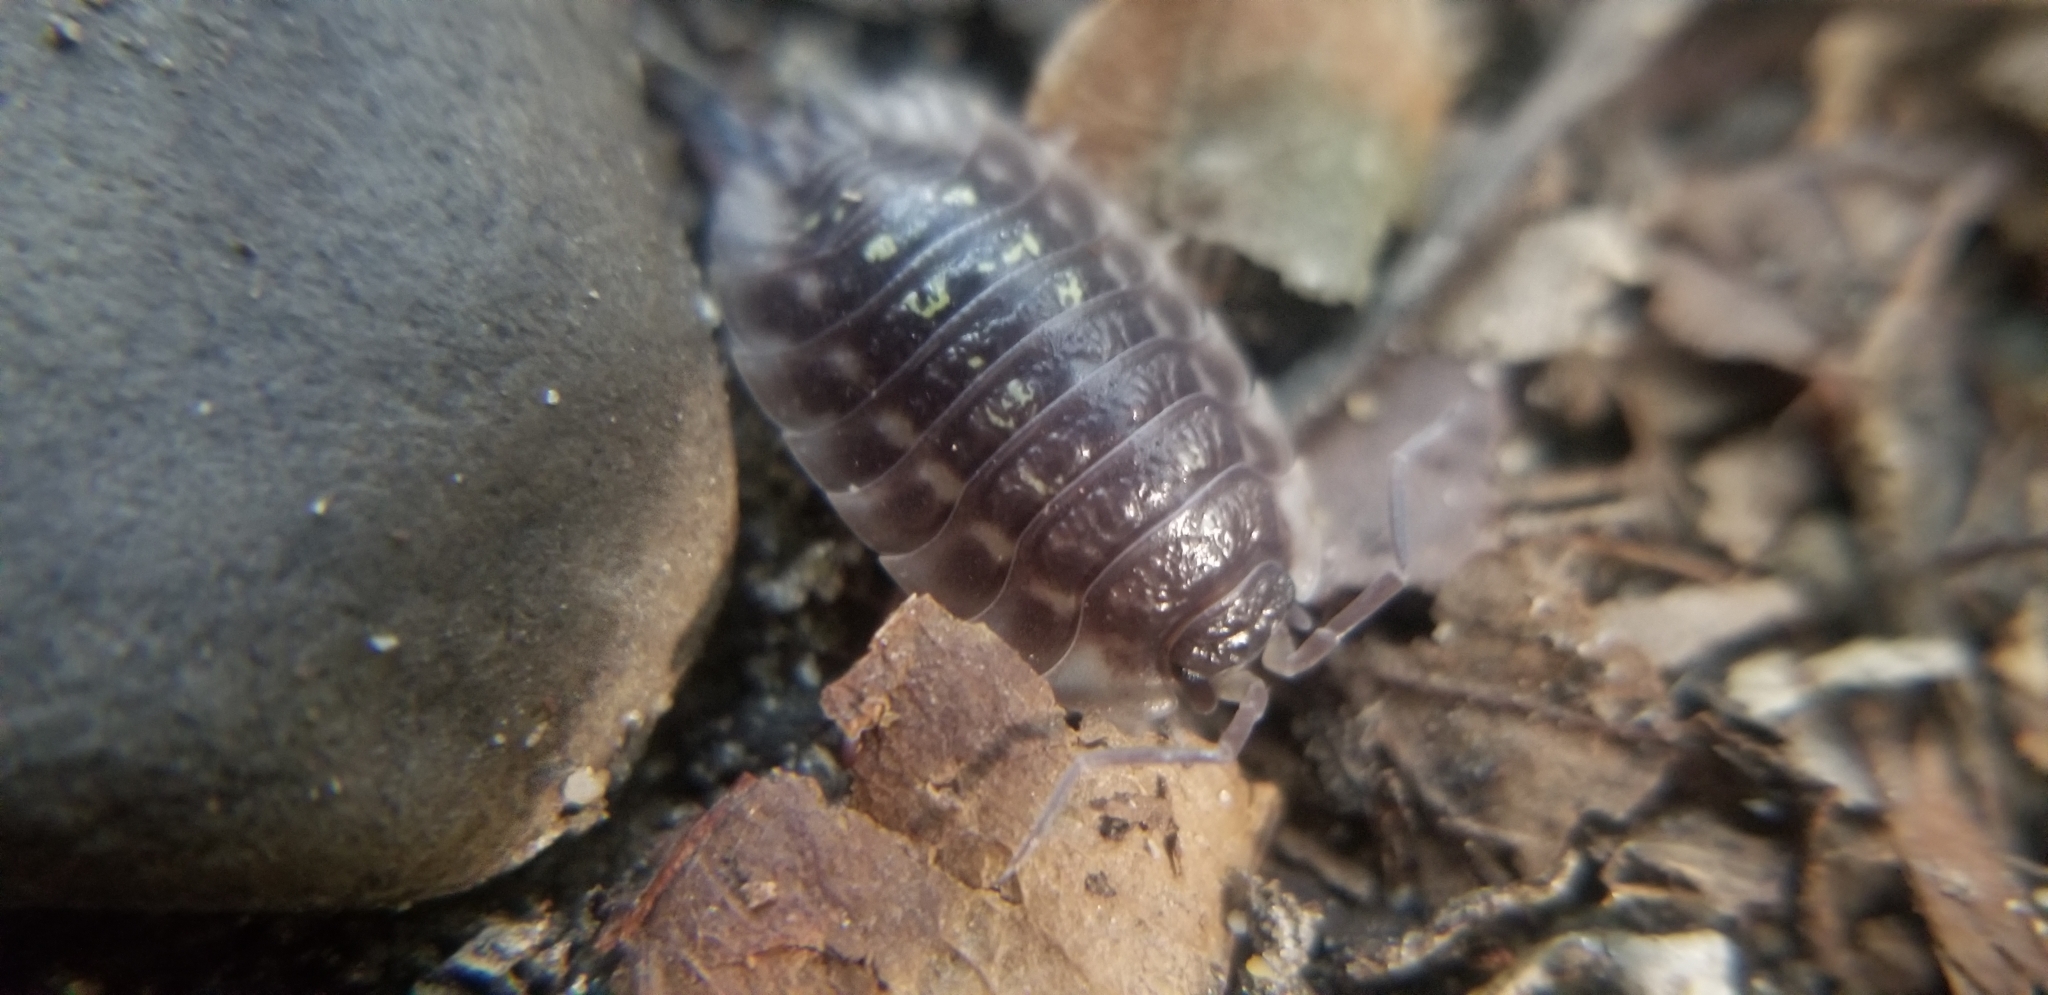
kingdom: Animalia
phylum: Arthropoda
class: Malacostraca
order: Isopoda
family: Oniscidae
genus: Oniscus
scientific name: Oniscus asellus
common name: Common shiny woodlouse
